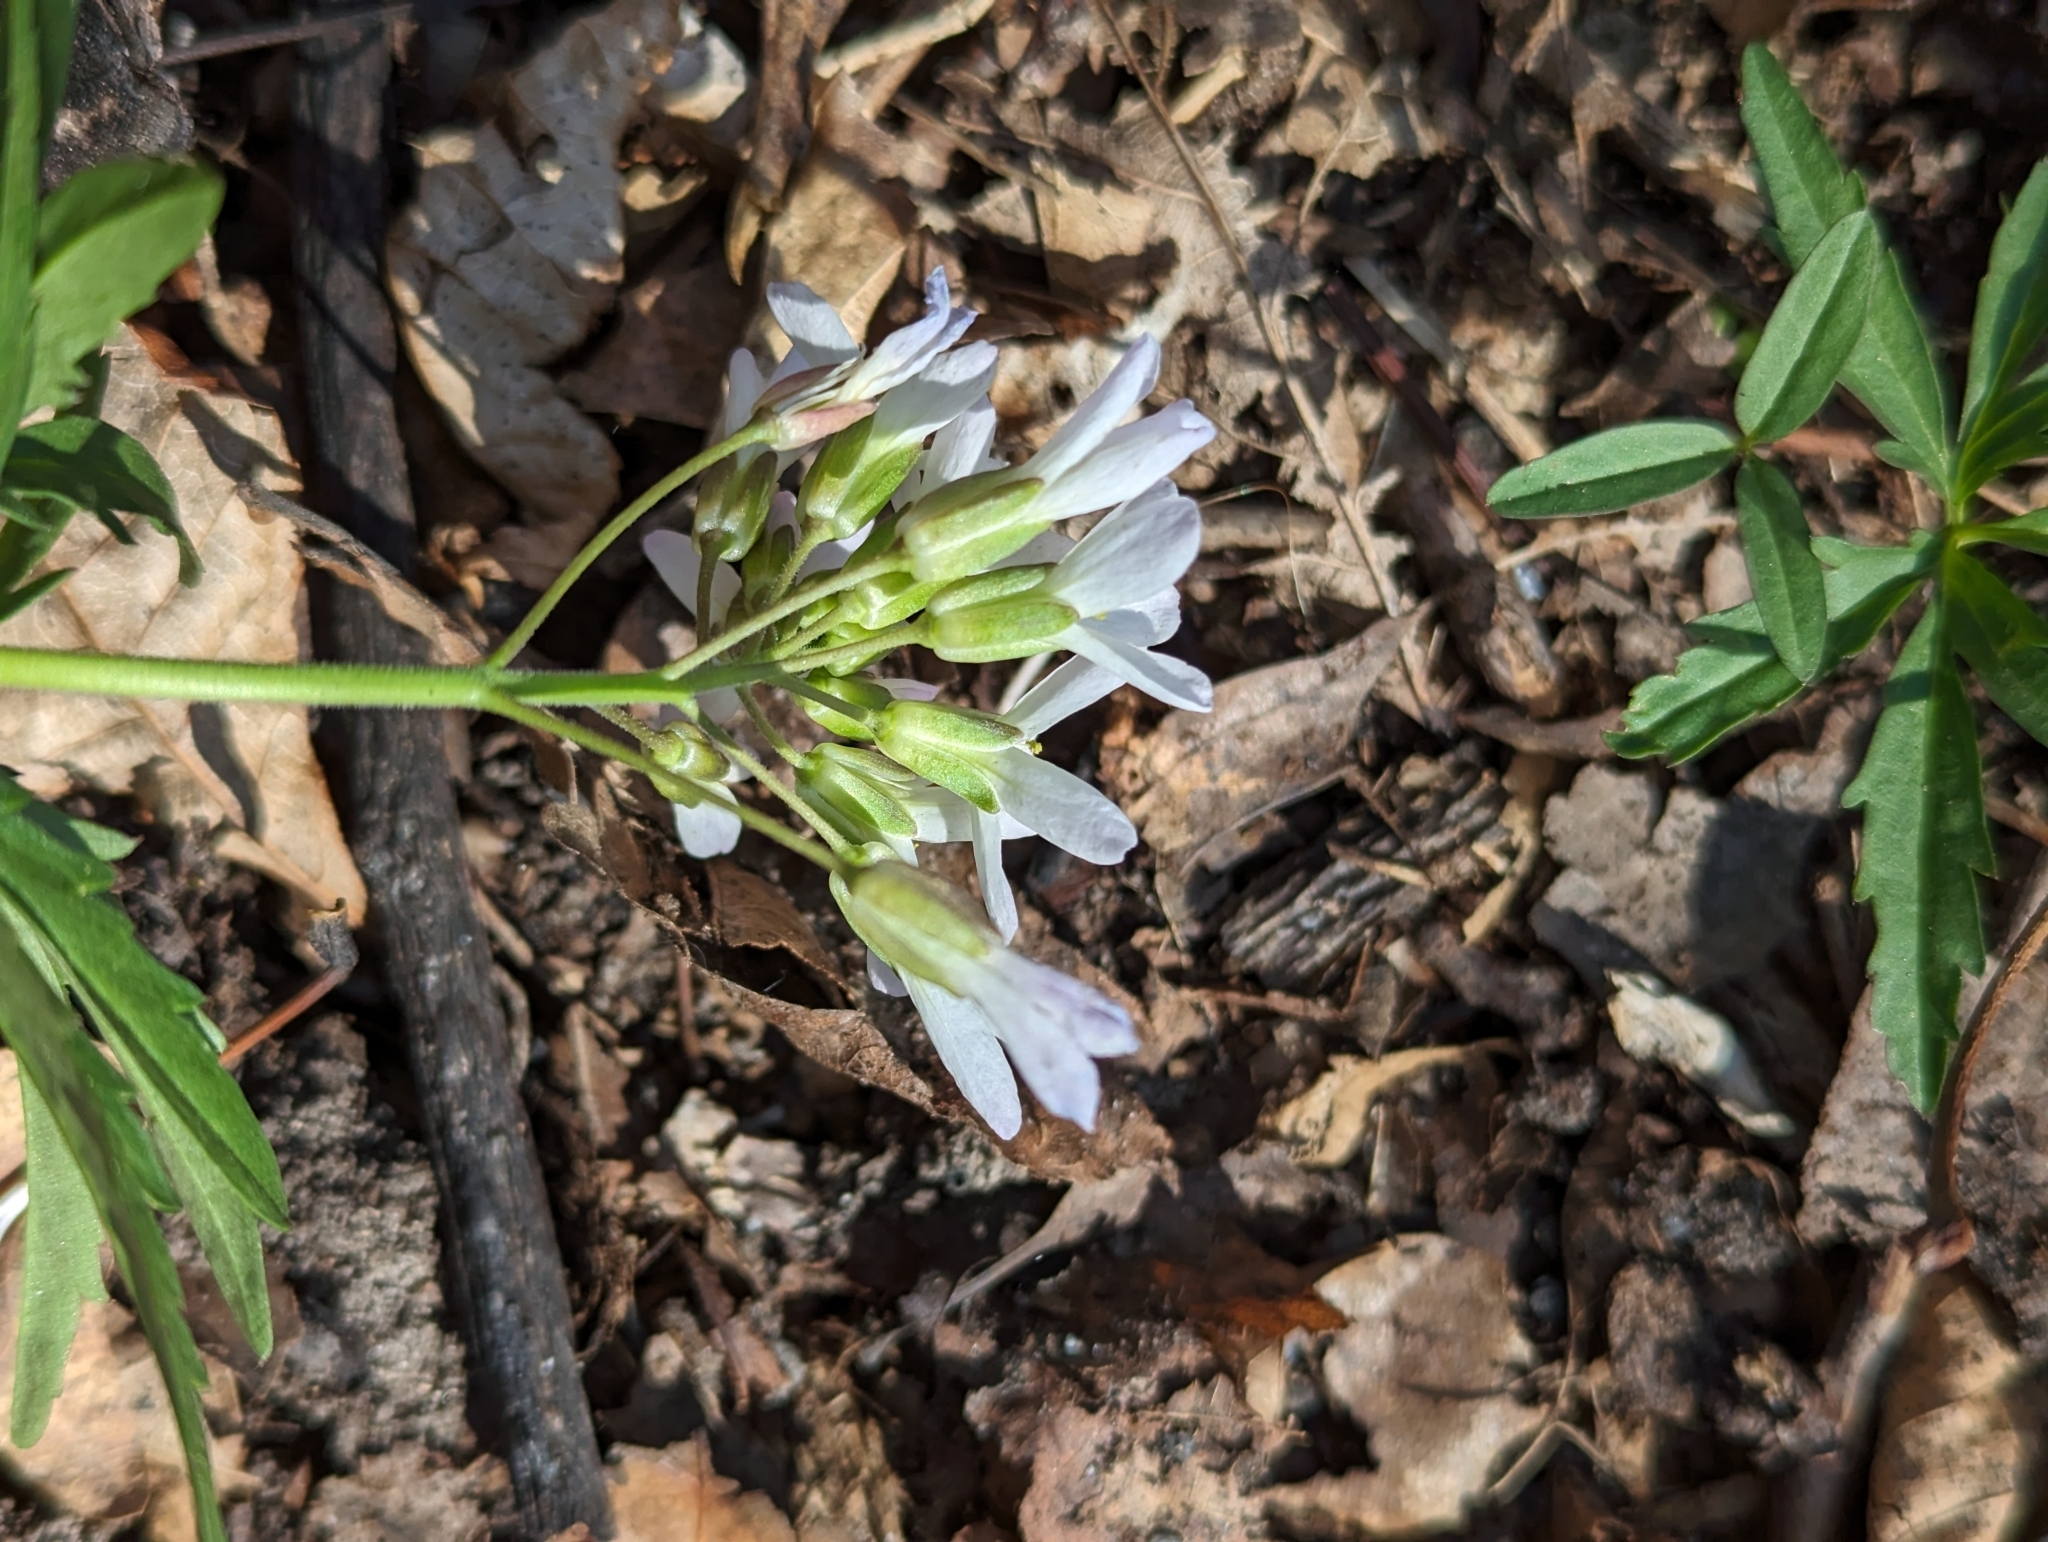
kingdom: Plantae
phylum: Tracheophyta
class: Magnoliopsida
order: Brassicales
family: Brassicaceae
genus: Cardamine
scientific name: Cardamine concatenata
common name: Cut-leaf toothcup
